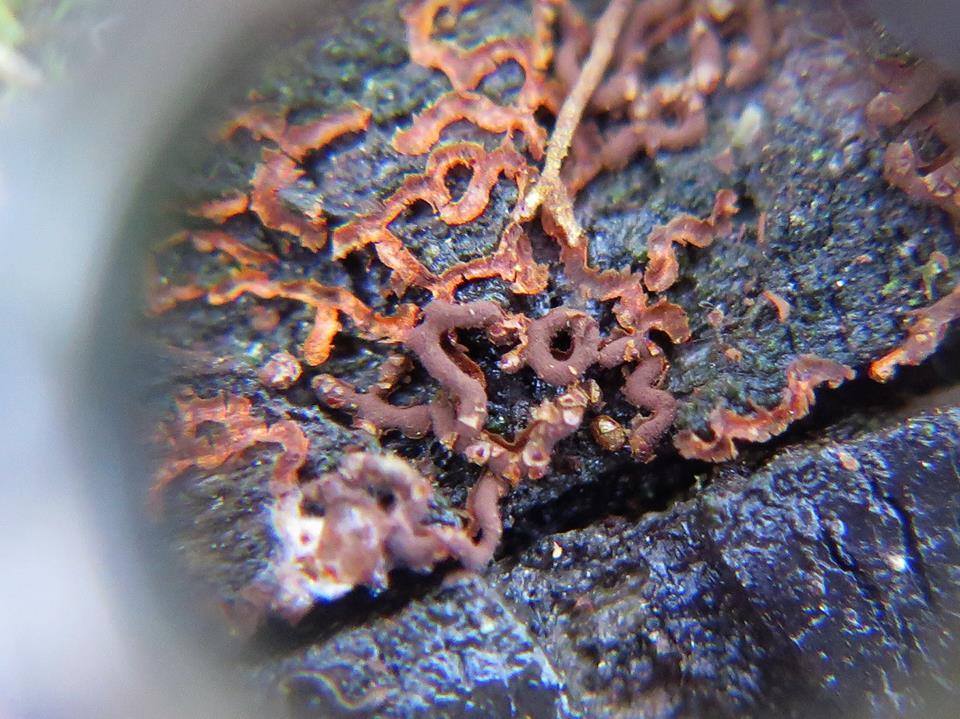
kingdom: Protozoa
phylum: Mycetozoa
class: Myxomycetes
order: Physarales
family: Physaraceae
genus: Willkommlangea
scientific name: Willkommlangea reticulata
